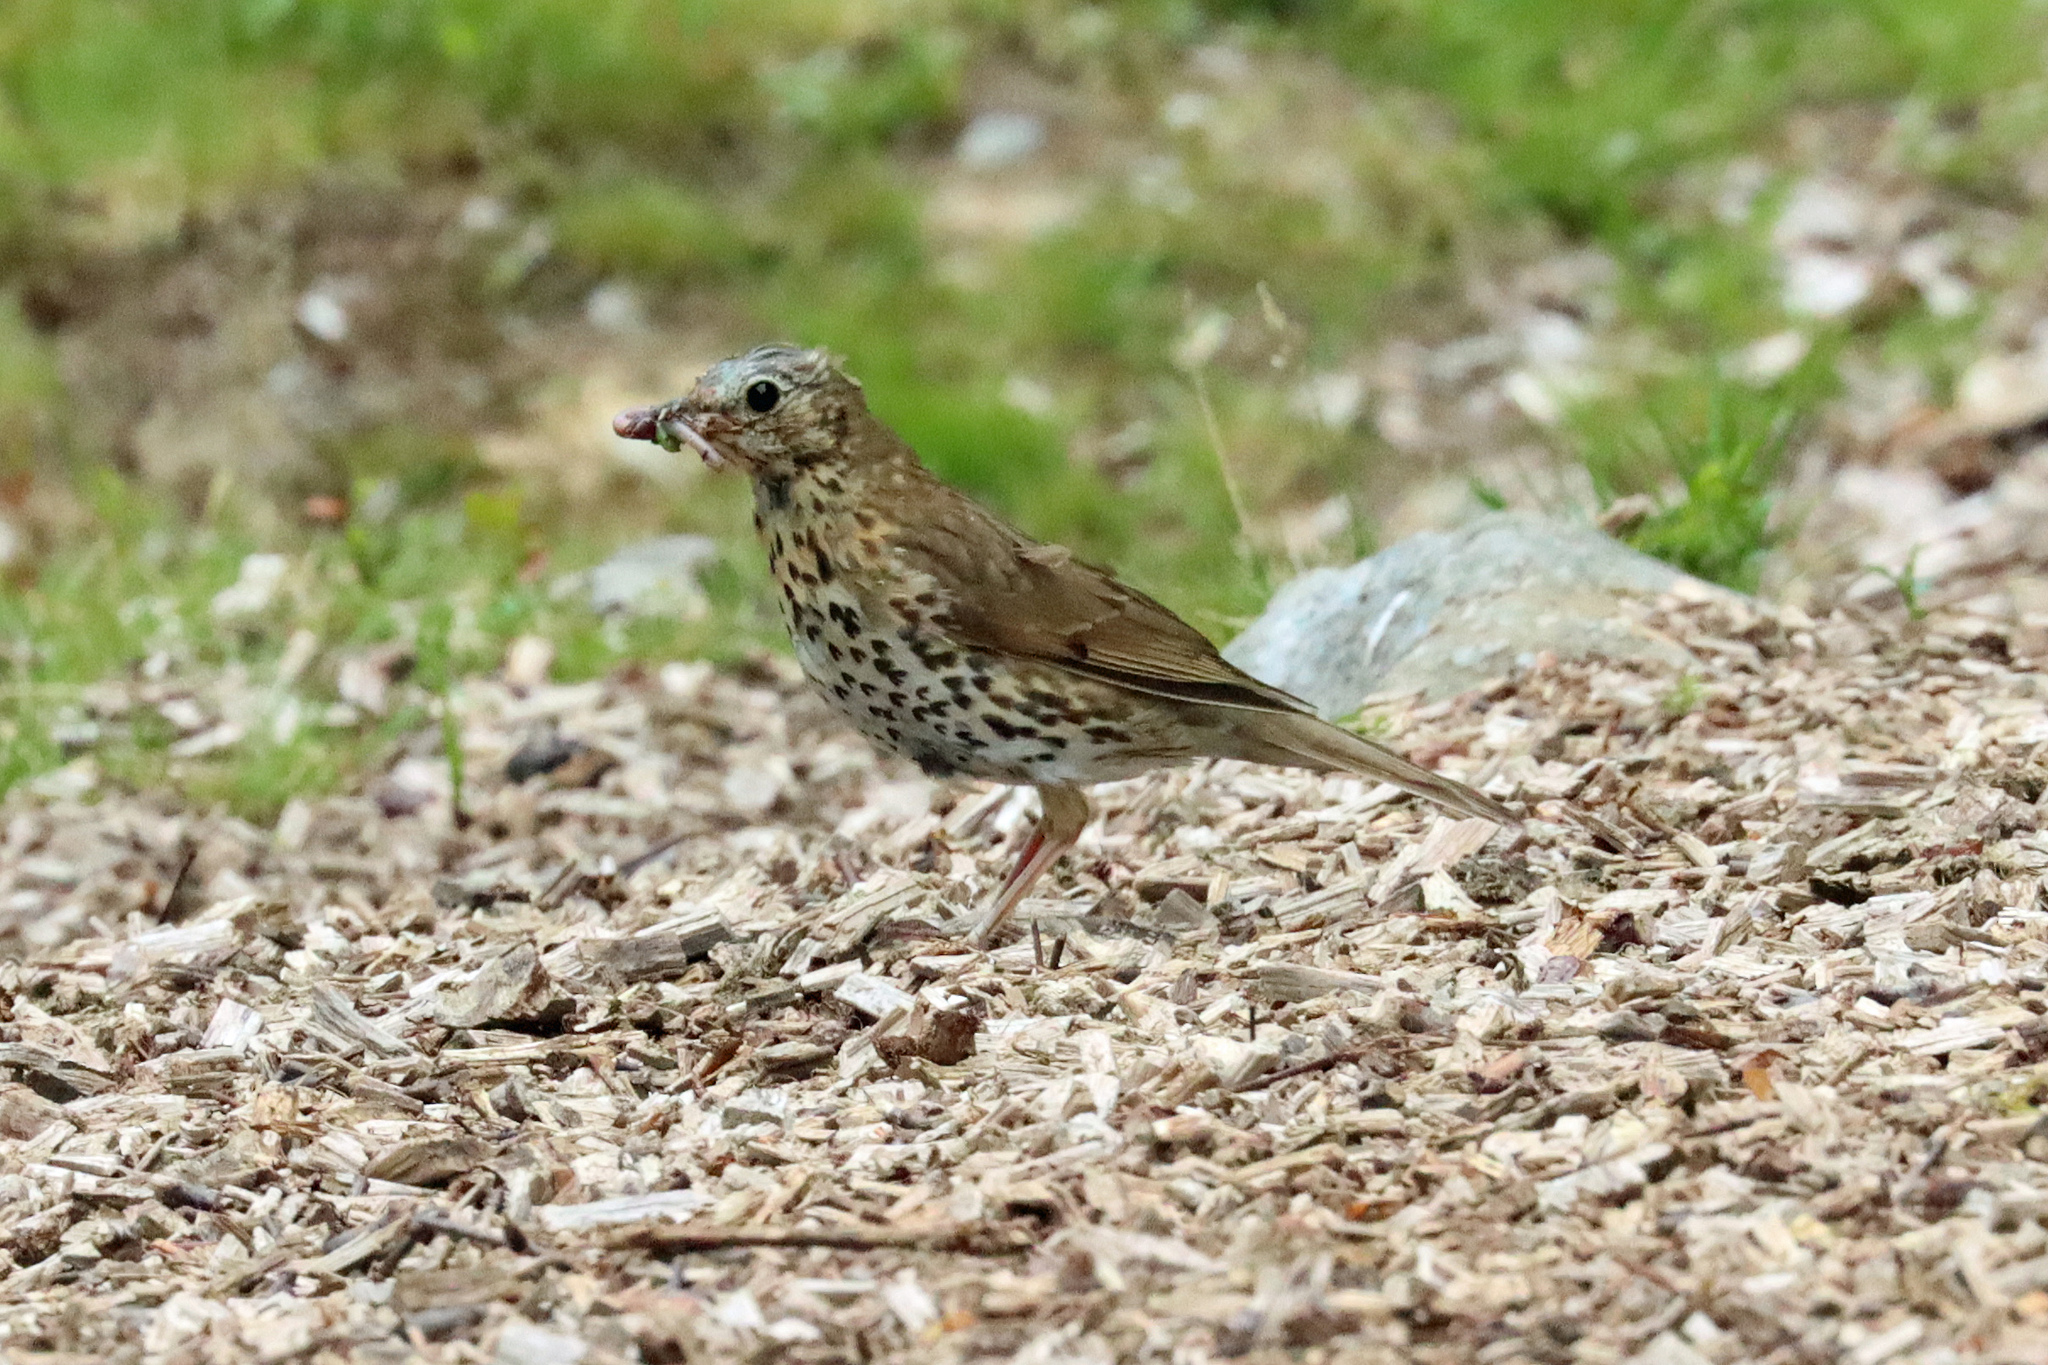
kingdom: Animalia
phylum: Chordata
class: Aves
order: Passeriformes
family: Turdidae
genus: Turdus
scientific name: Turdus philomelos
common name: Song thrush
